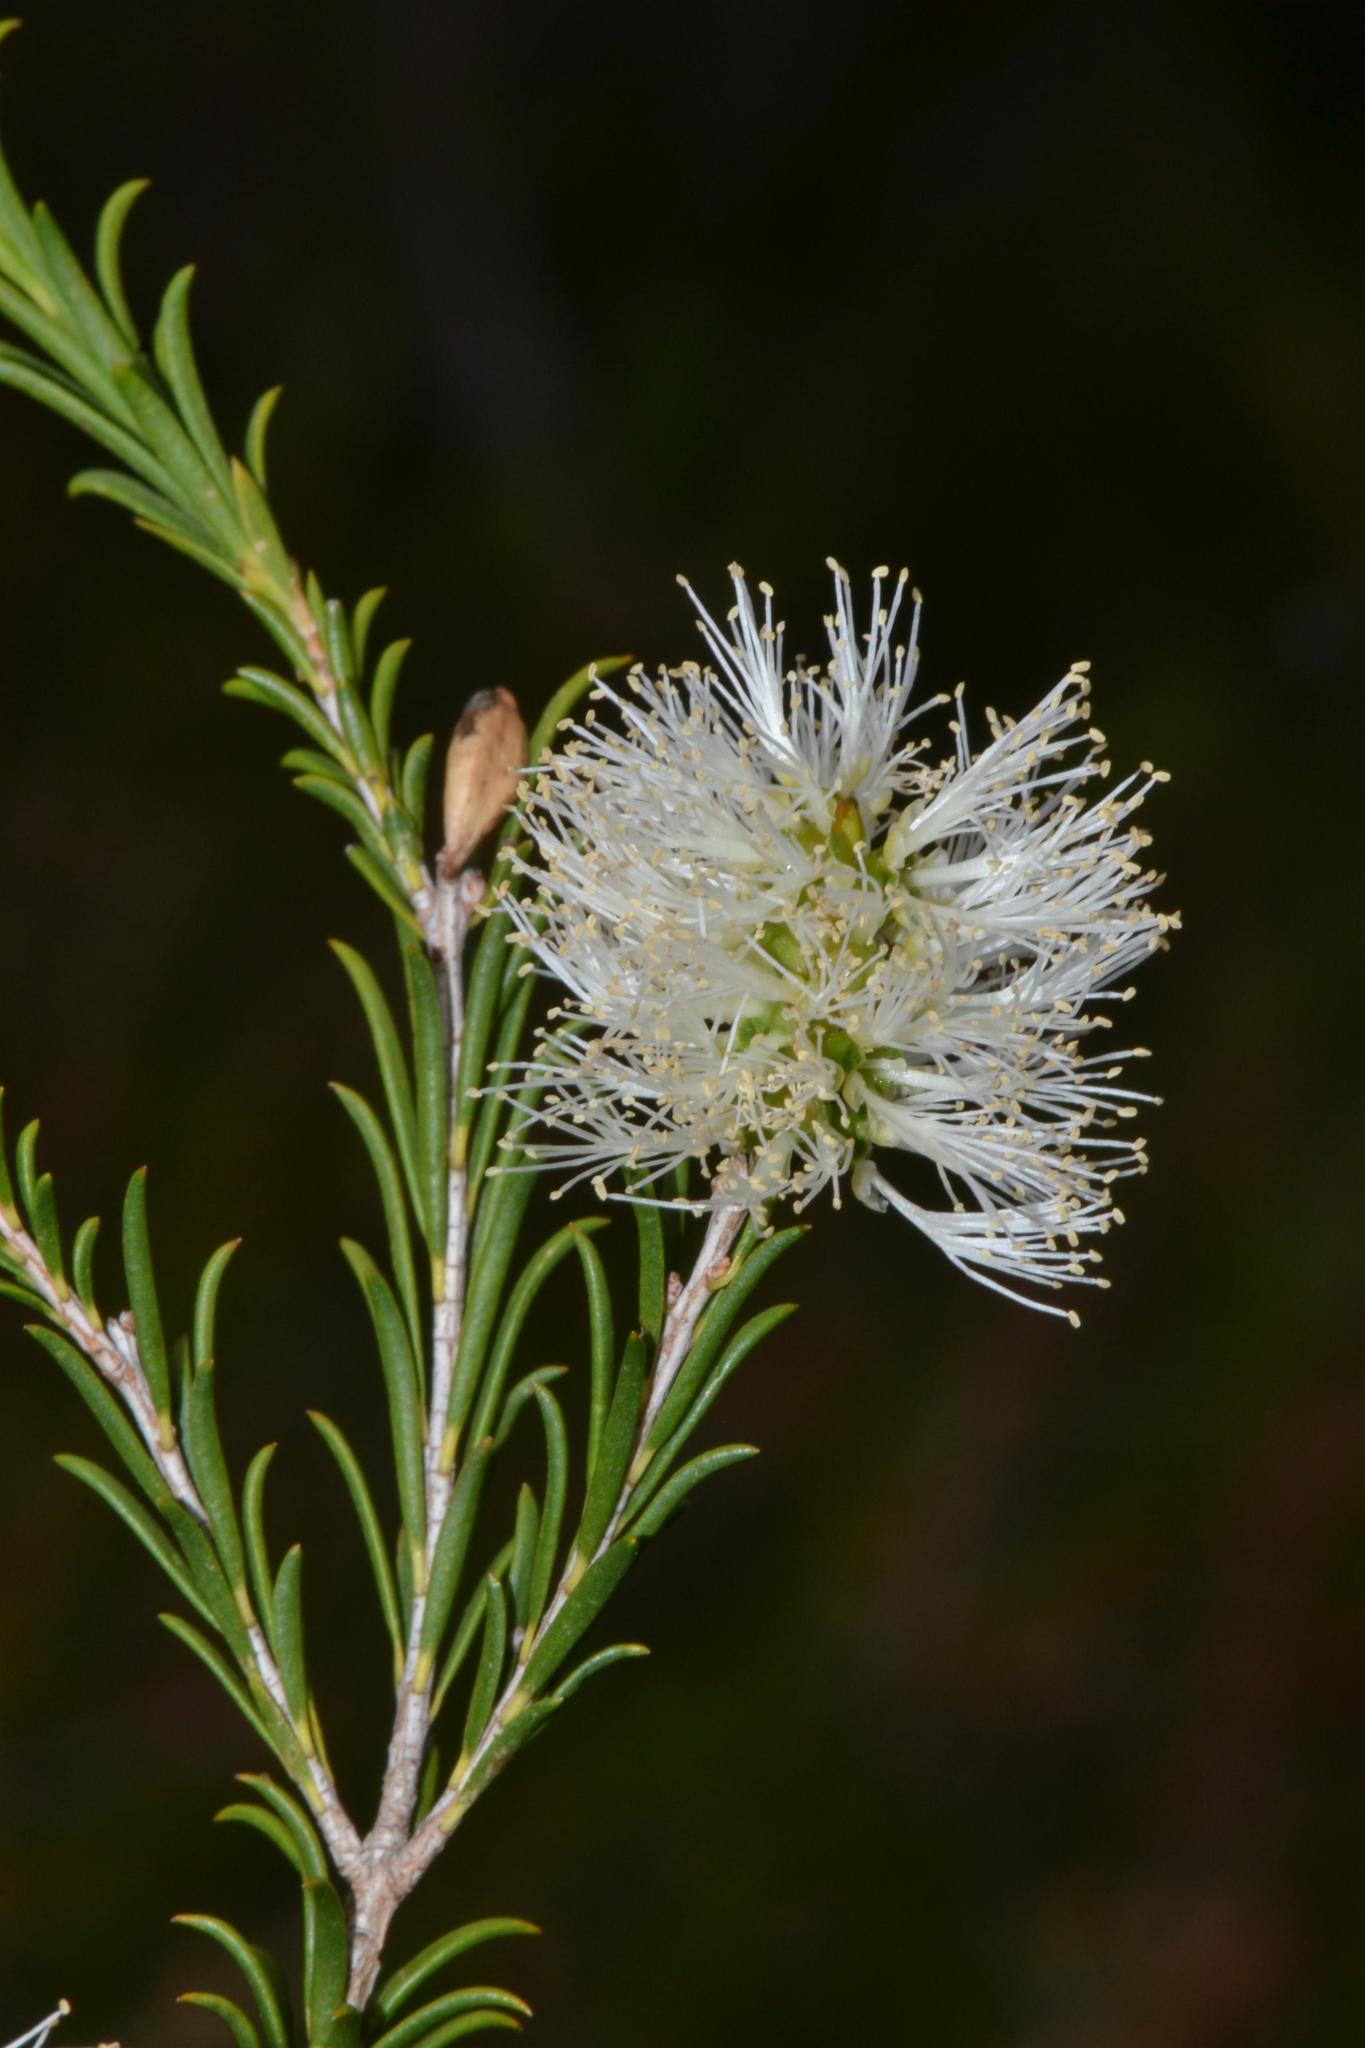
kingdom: Plantae
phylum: Tracheophyta
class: Magnoliopsida
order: Myrtales
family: Myrtaceae
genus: Melaleuca
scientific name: Melaleuca viminea
